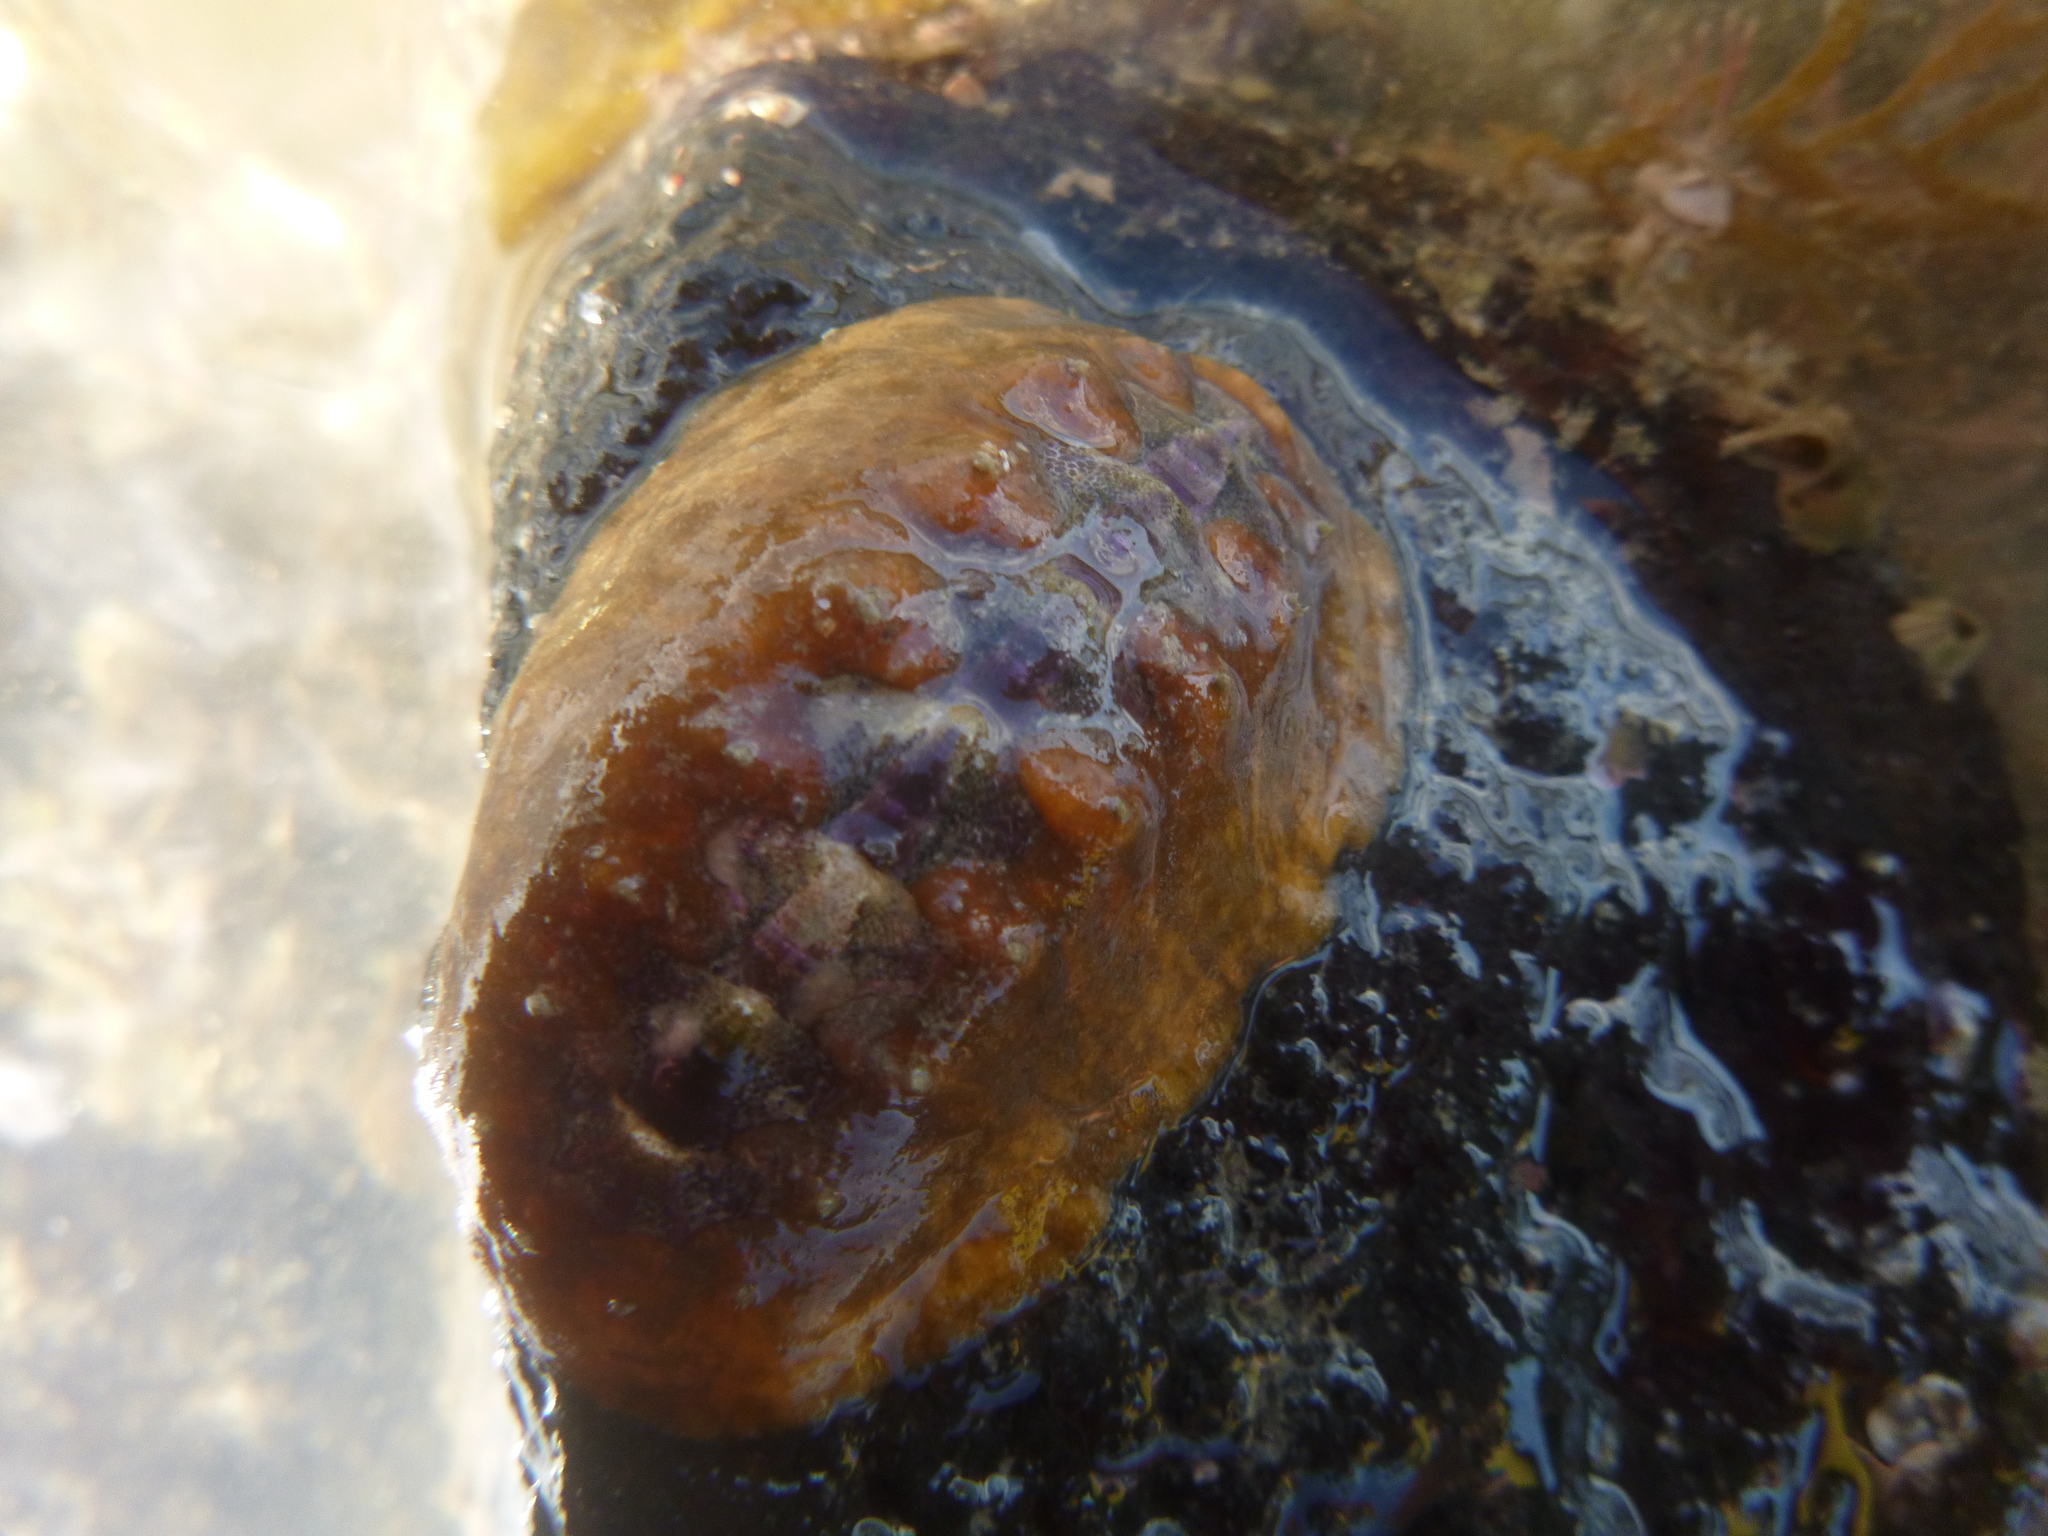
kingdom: Animalia
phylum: Mollusca
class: Polyplacophora
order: Chitonida
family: Acanthochitonidae
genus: Notoplax
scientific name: Notoplax violacea
